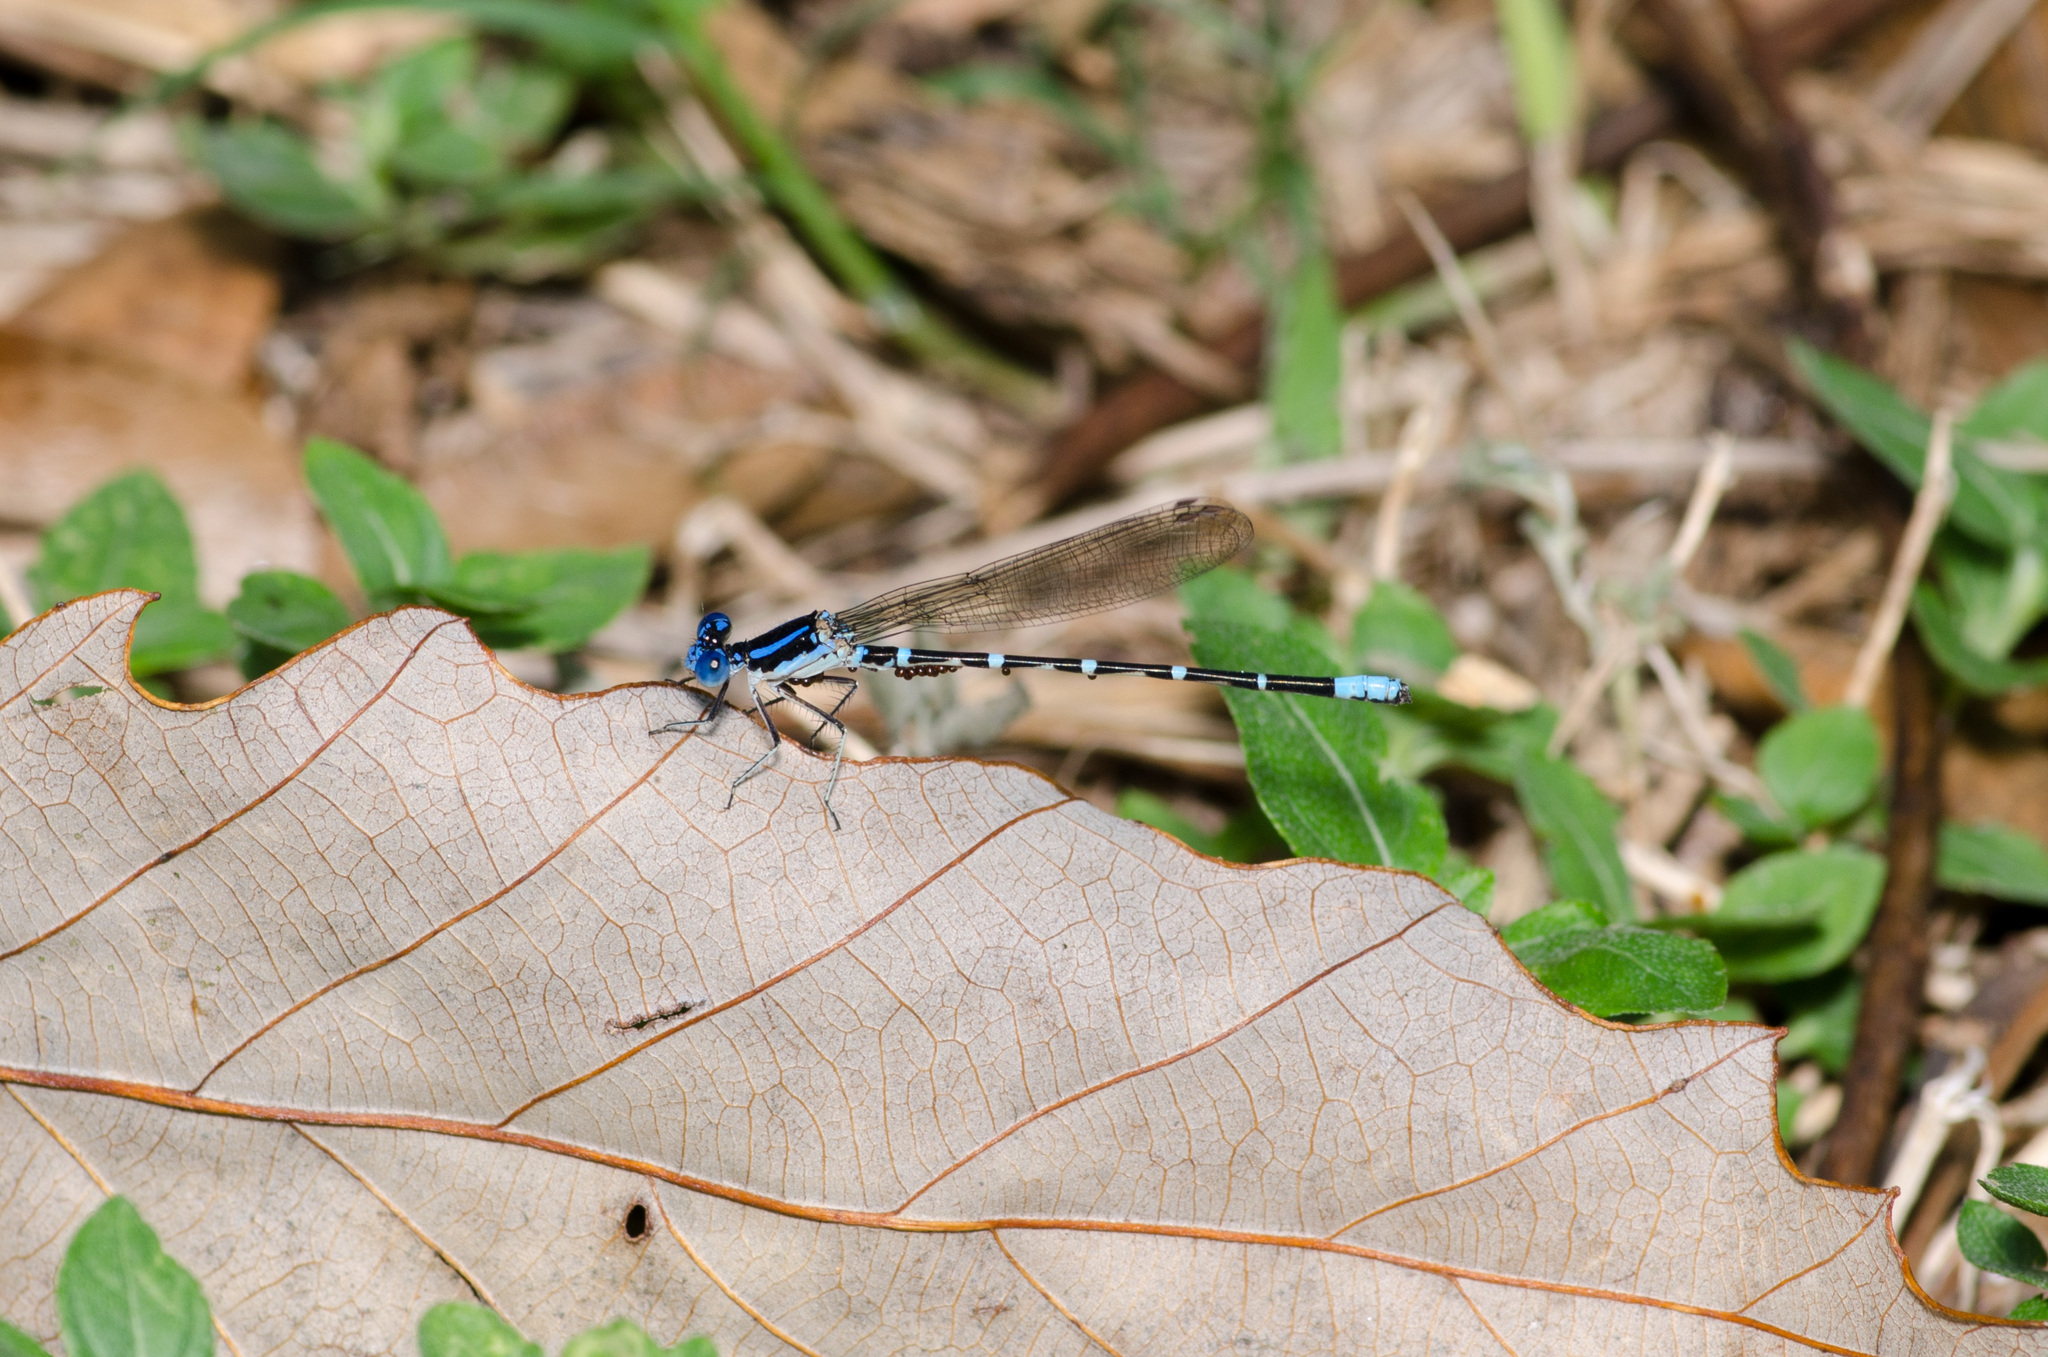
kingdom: Animalia
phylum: Arthropoda
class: Insecta
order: Odonata
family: Coenagrionidae
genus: Argia
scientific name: Argia sedula
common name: Blue-ringed dancer
